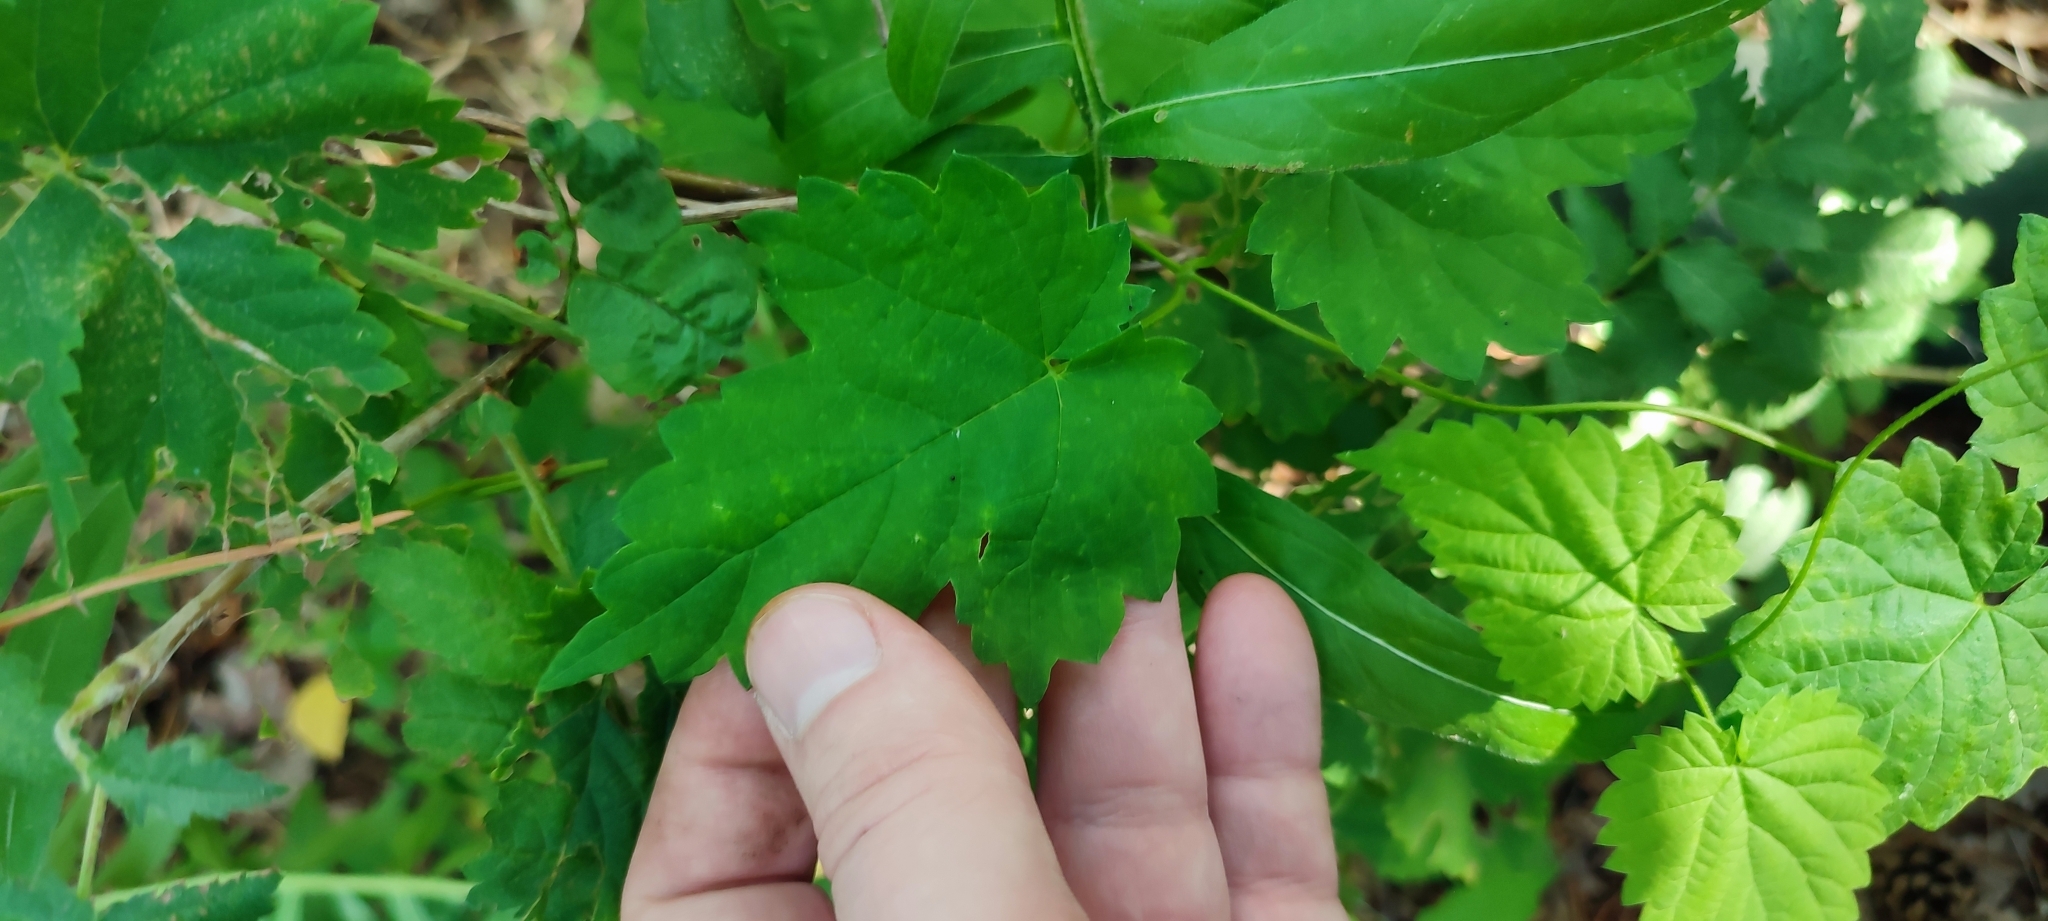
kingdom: Plantae
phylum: Tracheophyta
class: Magnoliopsida
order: Rosales
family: Cannabaceae
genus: Humulus
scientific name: Humulus lupulus
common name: Hop
